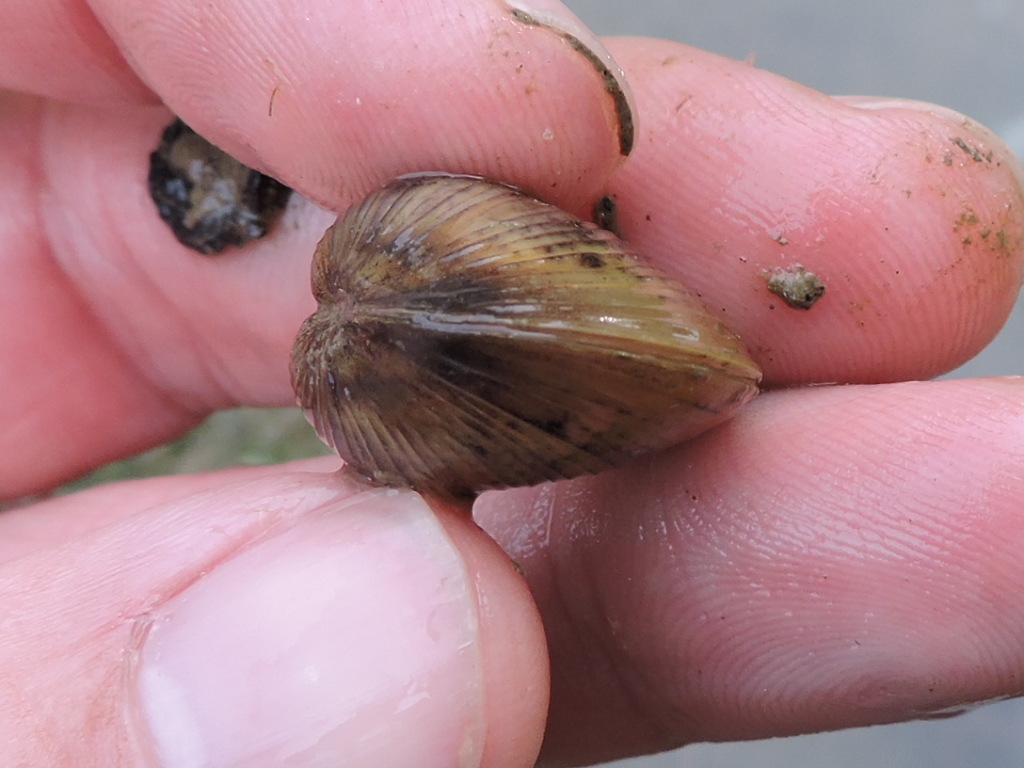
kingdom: Animalia
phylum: Mollusca
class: Bivalvia
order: Venerida
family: Cyrenidae
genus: Corbicula
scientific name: Corbicula fluminea
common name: Asian clam
